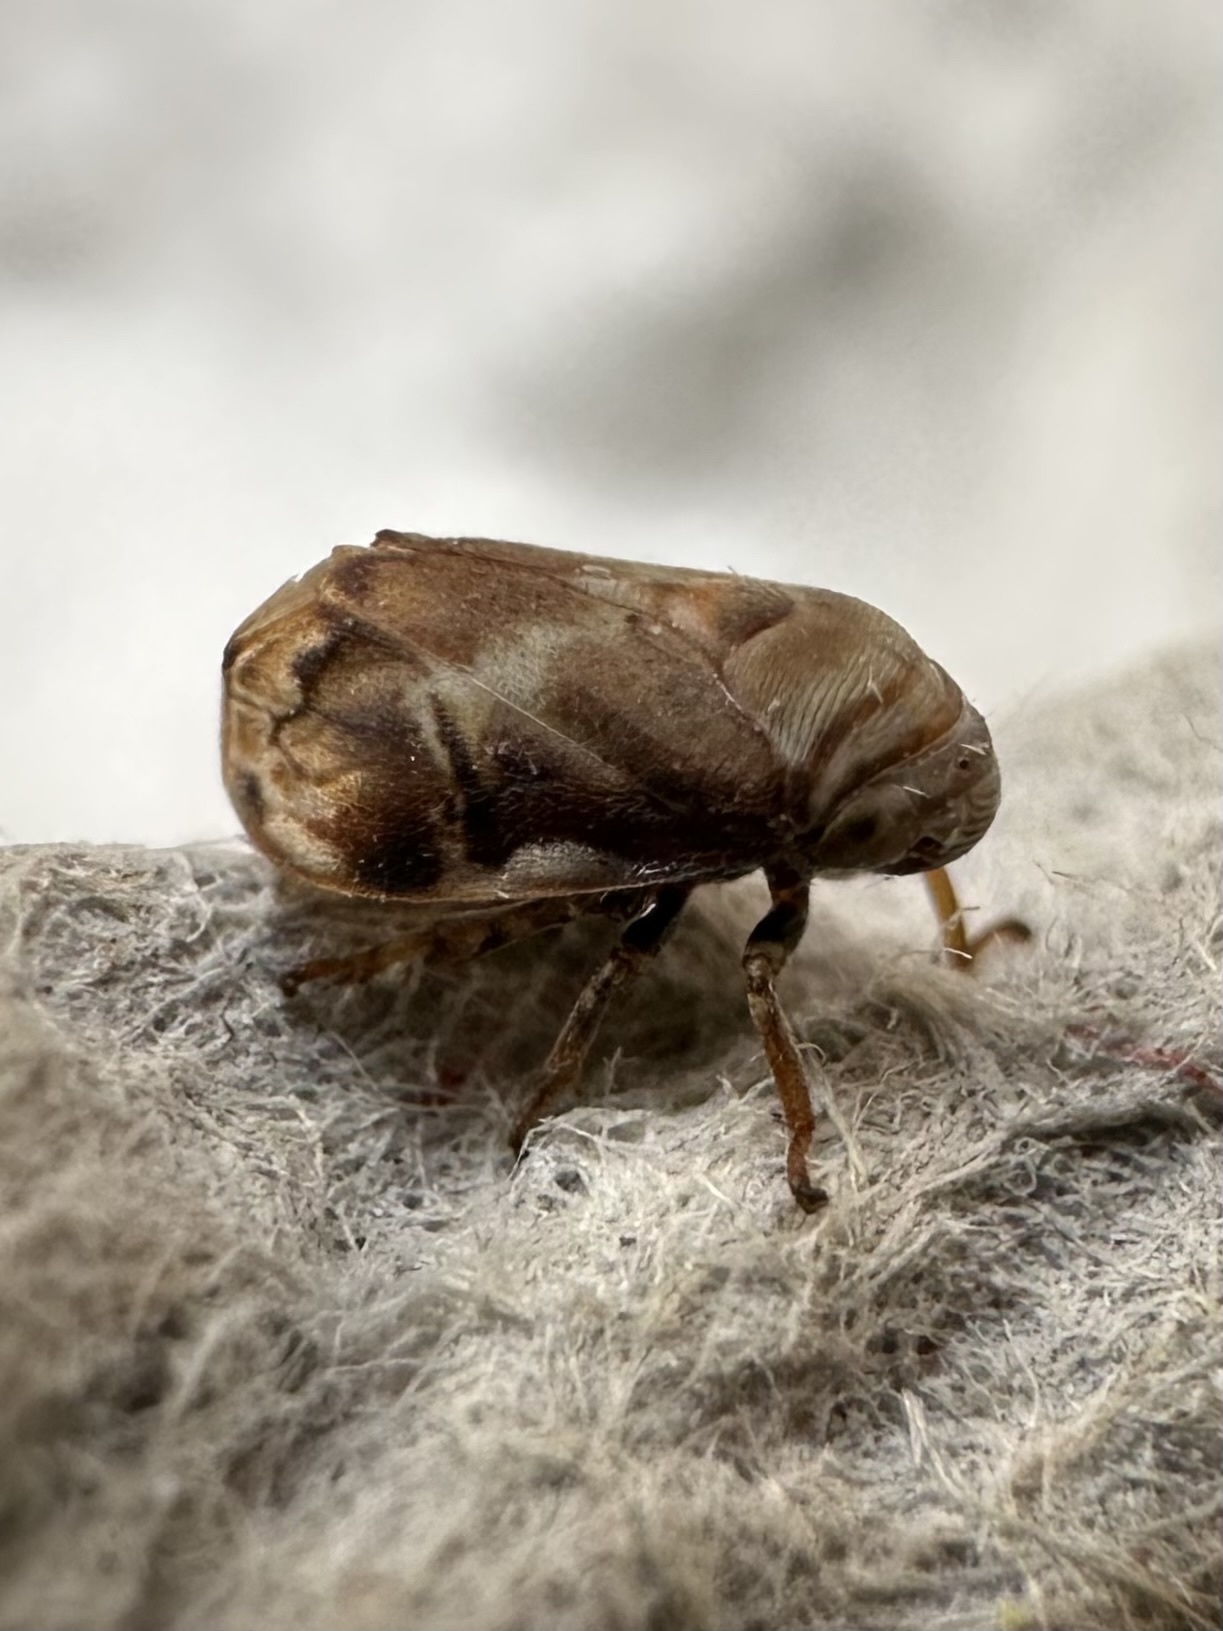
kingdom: Animalia
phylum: Arthropoda
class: Insecta
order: Hemiptera
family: Clastopteridae
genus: Clastoptera
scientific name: Clastoptera obtusa
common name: Alder spittlebug
